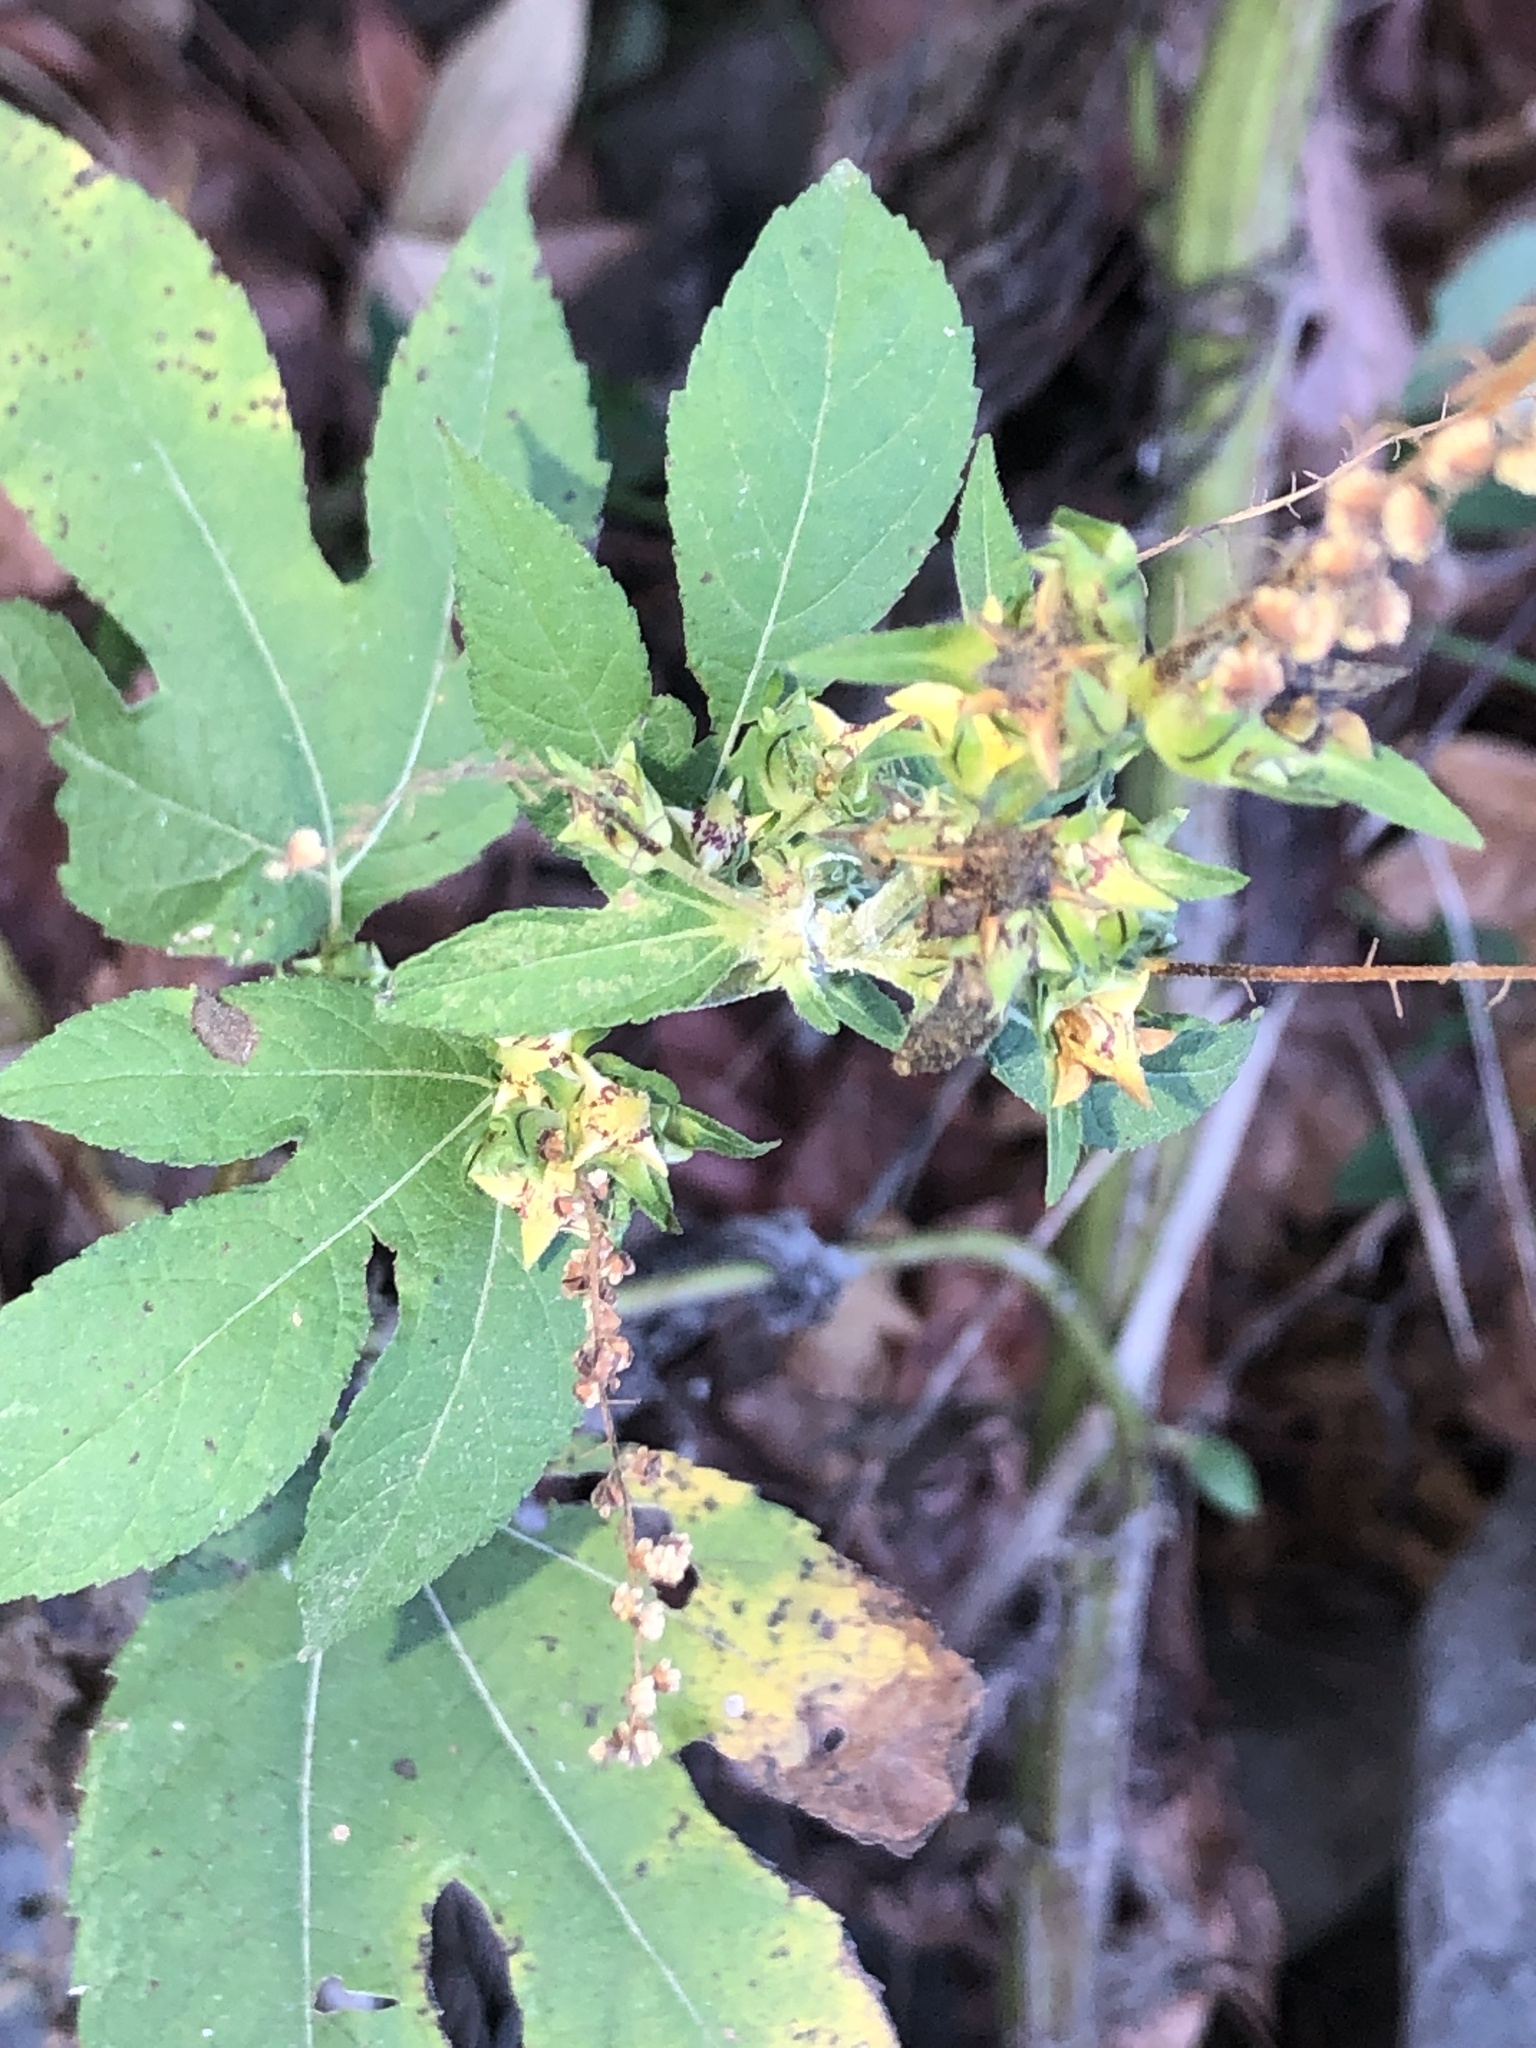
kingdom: Plantae
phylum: Tracheophyta
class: Magnoliopsida
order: Asterales
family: Asteraceae
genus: Ambrosia
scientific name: Ambrosia trifida
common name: Giant ragweed
